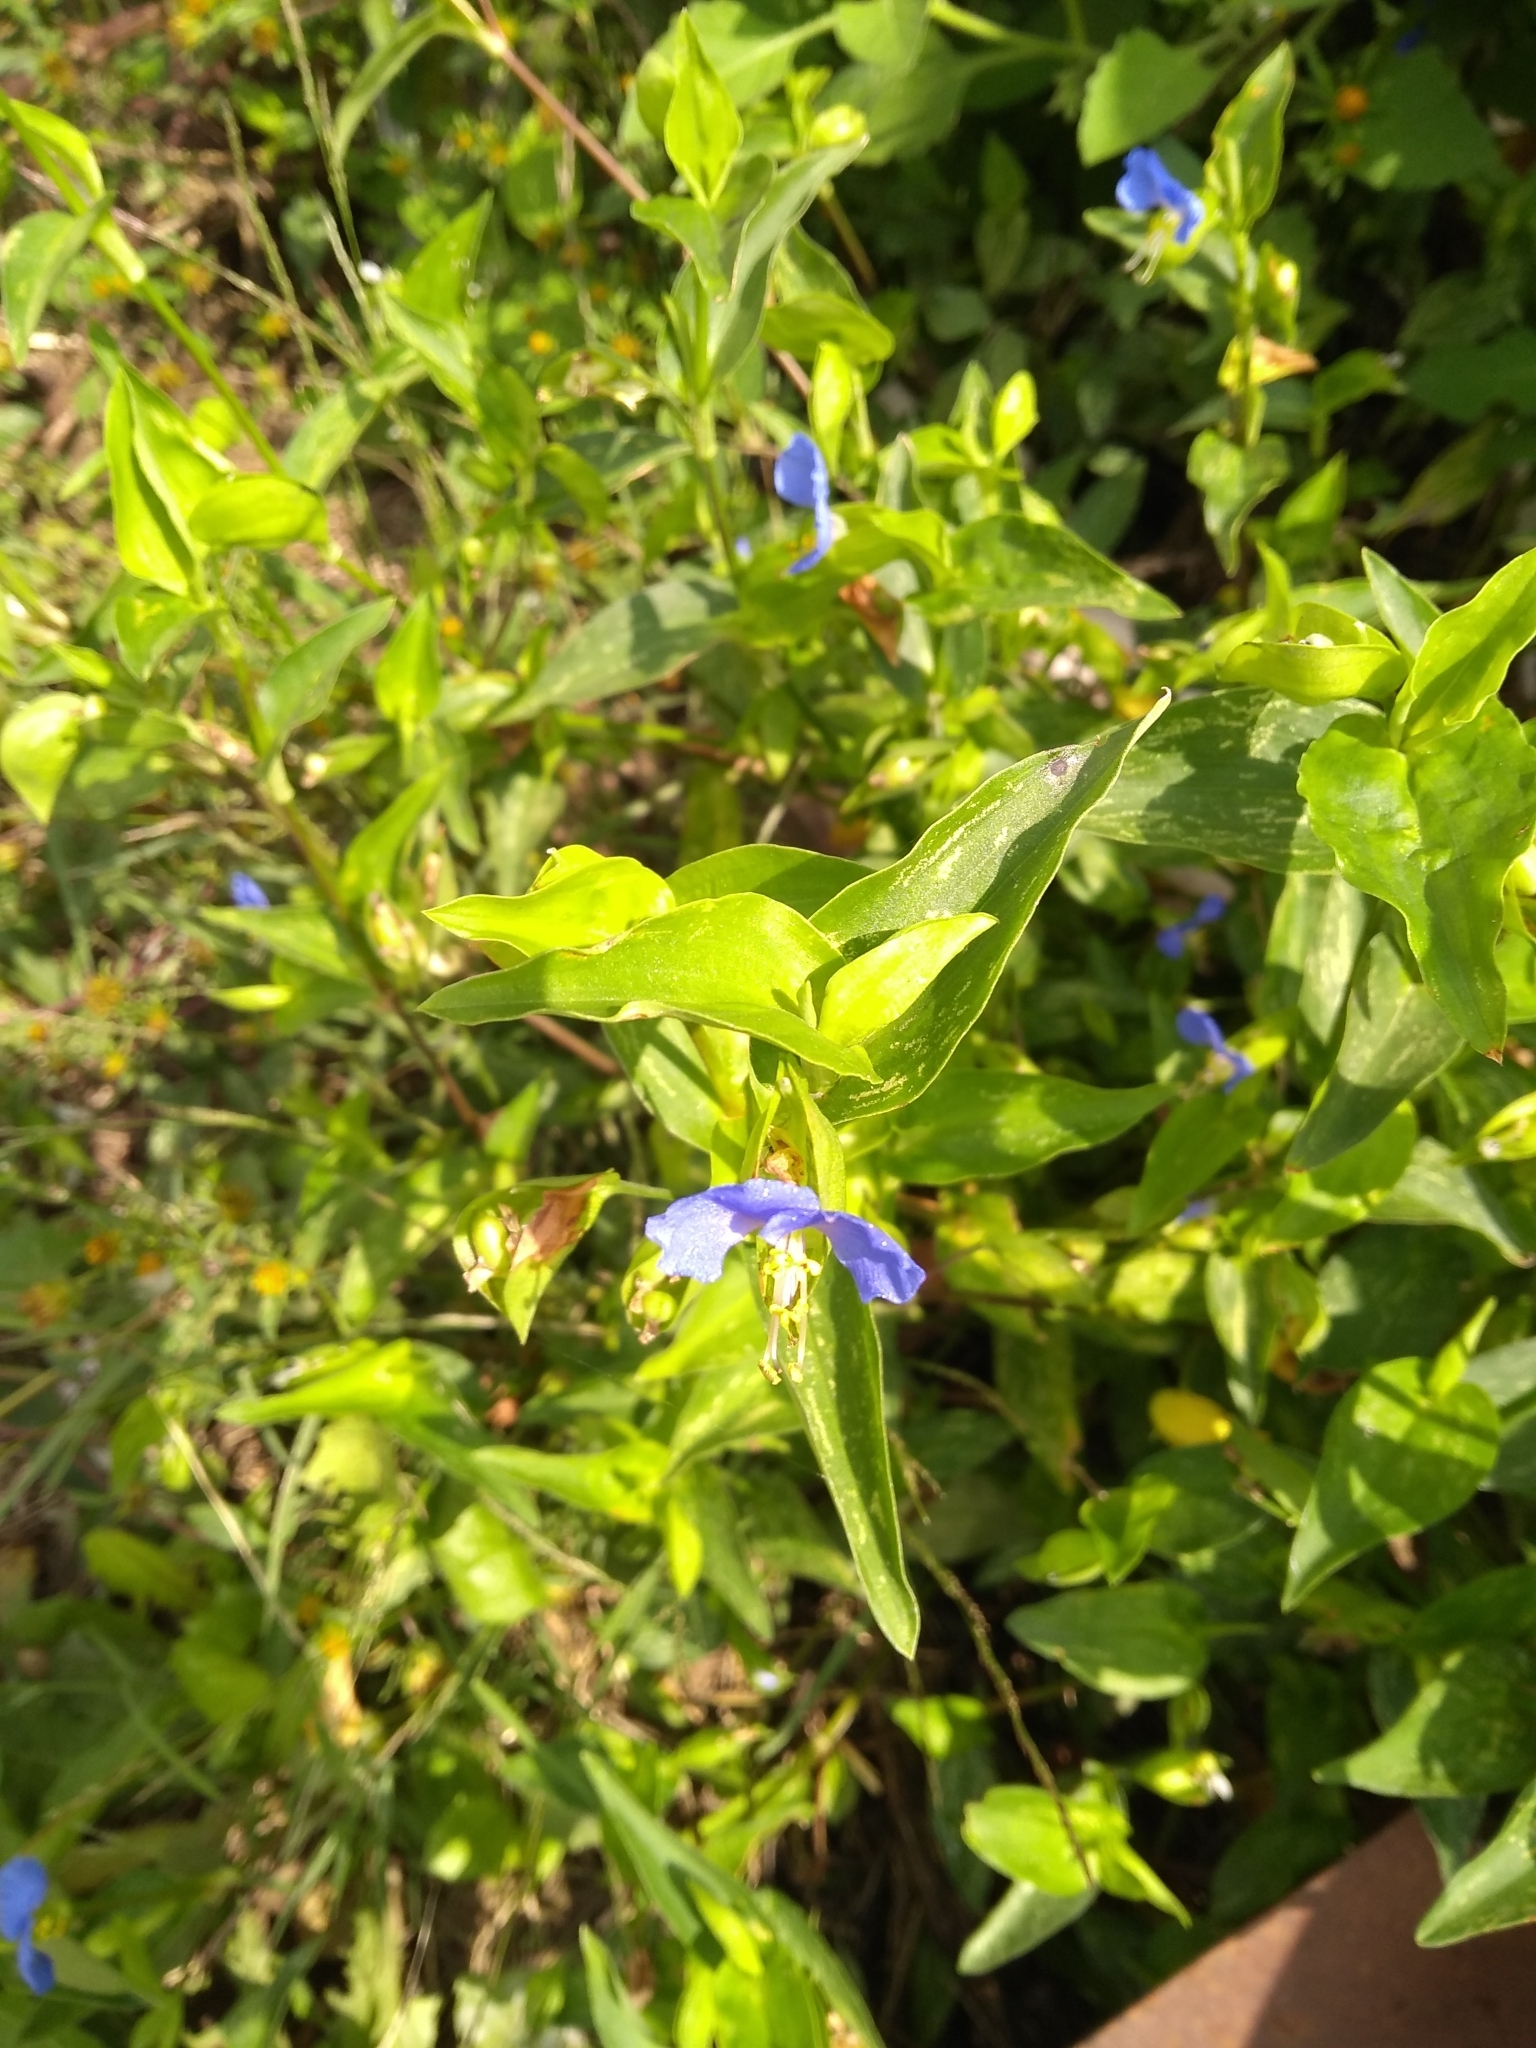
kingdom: Plantae
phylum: Tracheophyta
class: Liliopsida
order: Commelinales
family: Commelinaceae
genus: Commelina
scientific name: Commelina communis
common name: Asiatic dayflower
